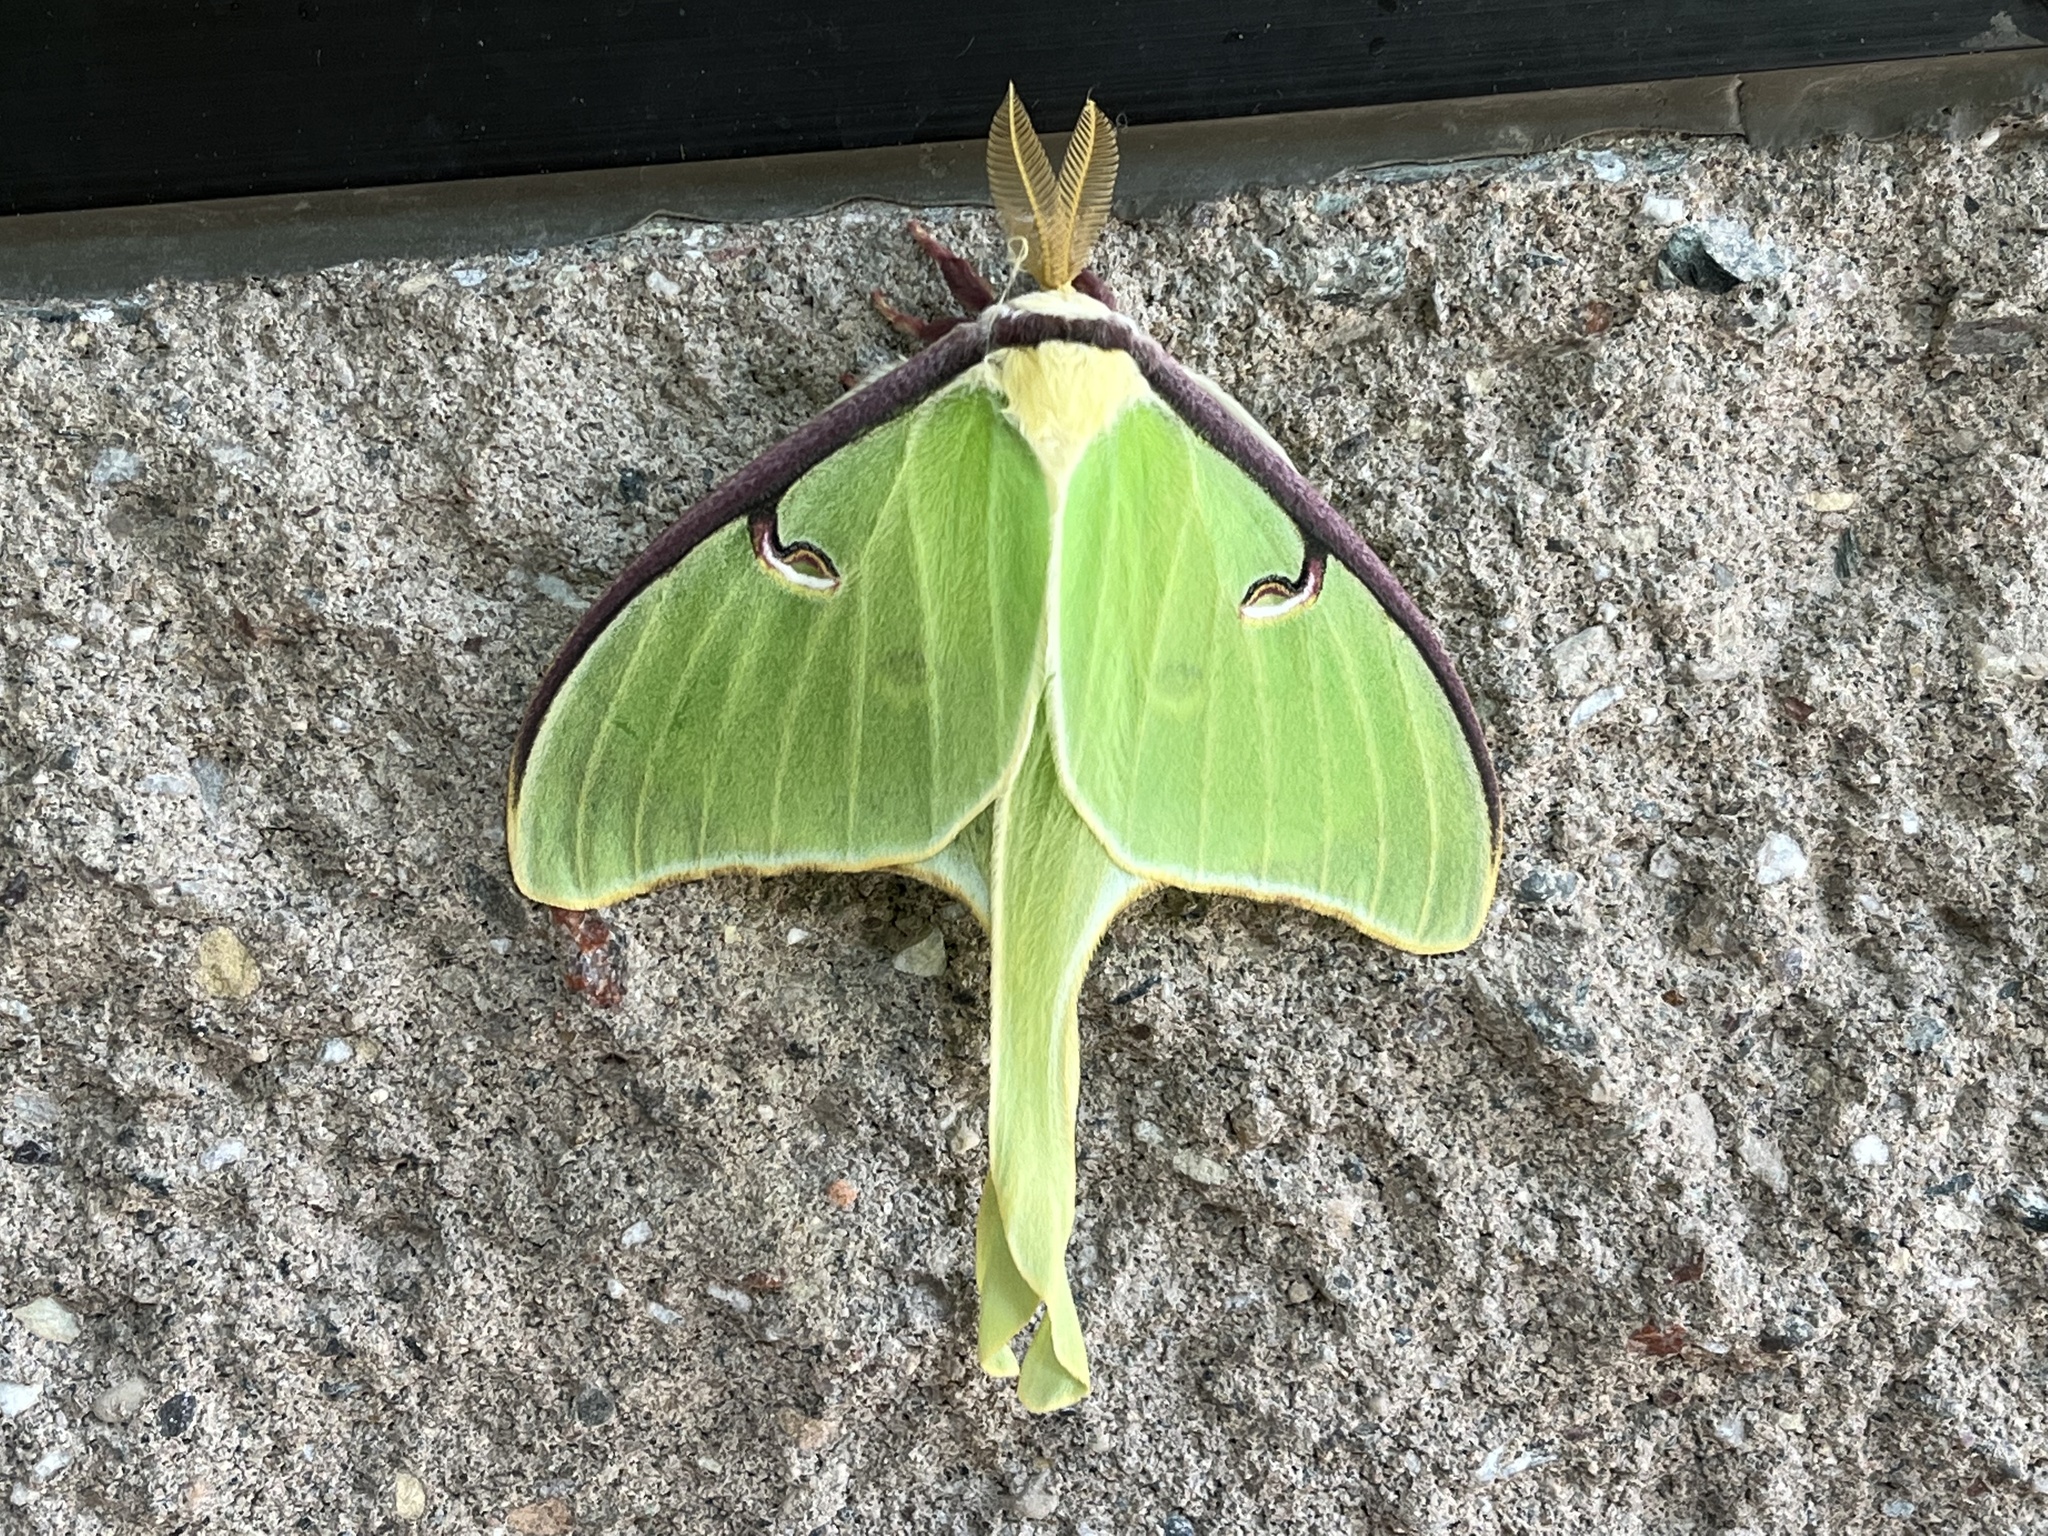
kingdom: Animalia
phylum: Arthropoda
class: Insecta
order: Lepidoptera
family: Saturniidae
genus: Actias
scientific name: Actias luna
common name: Luna moth
